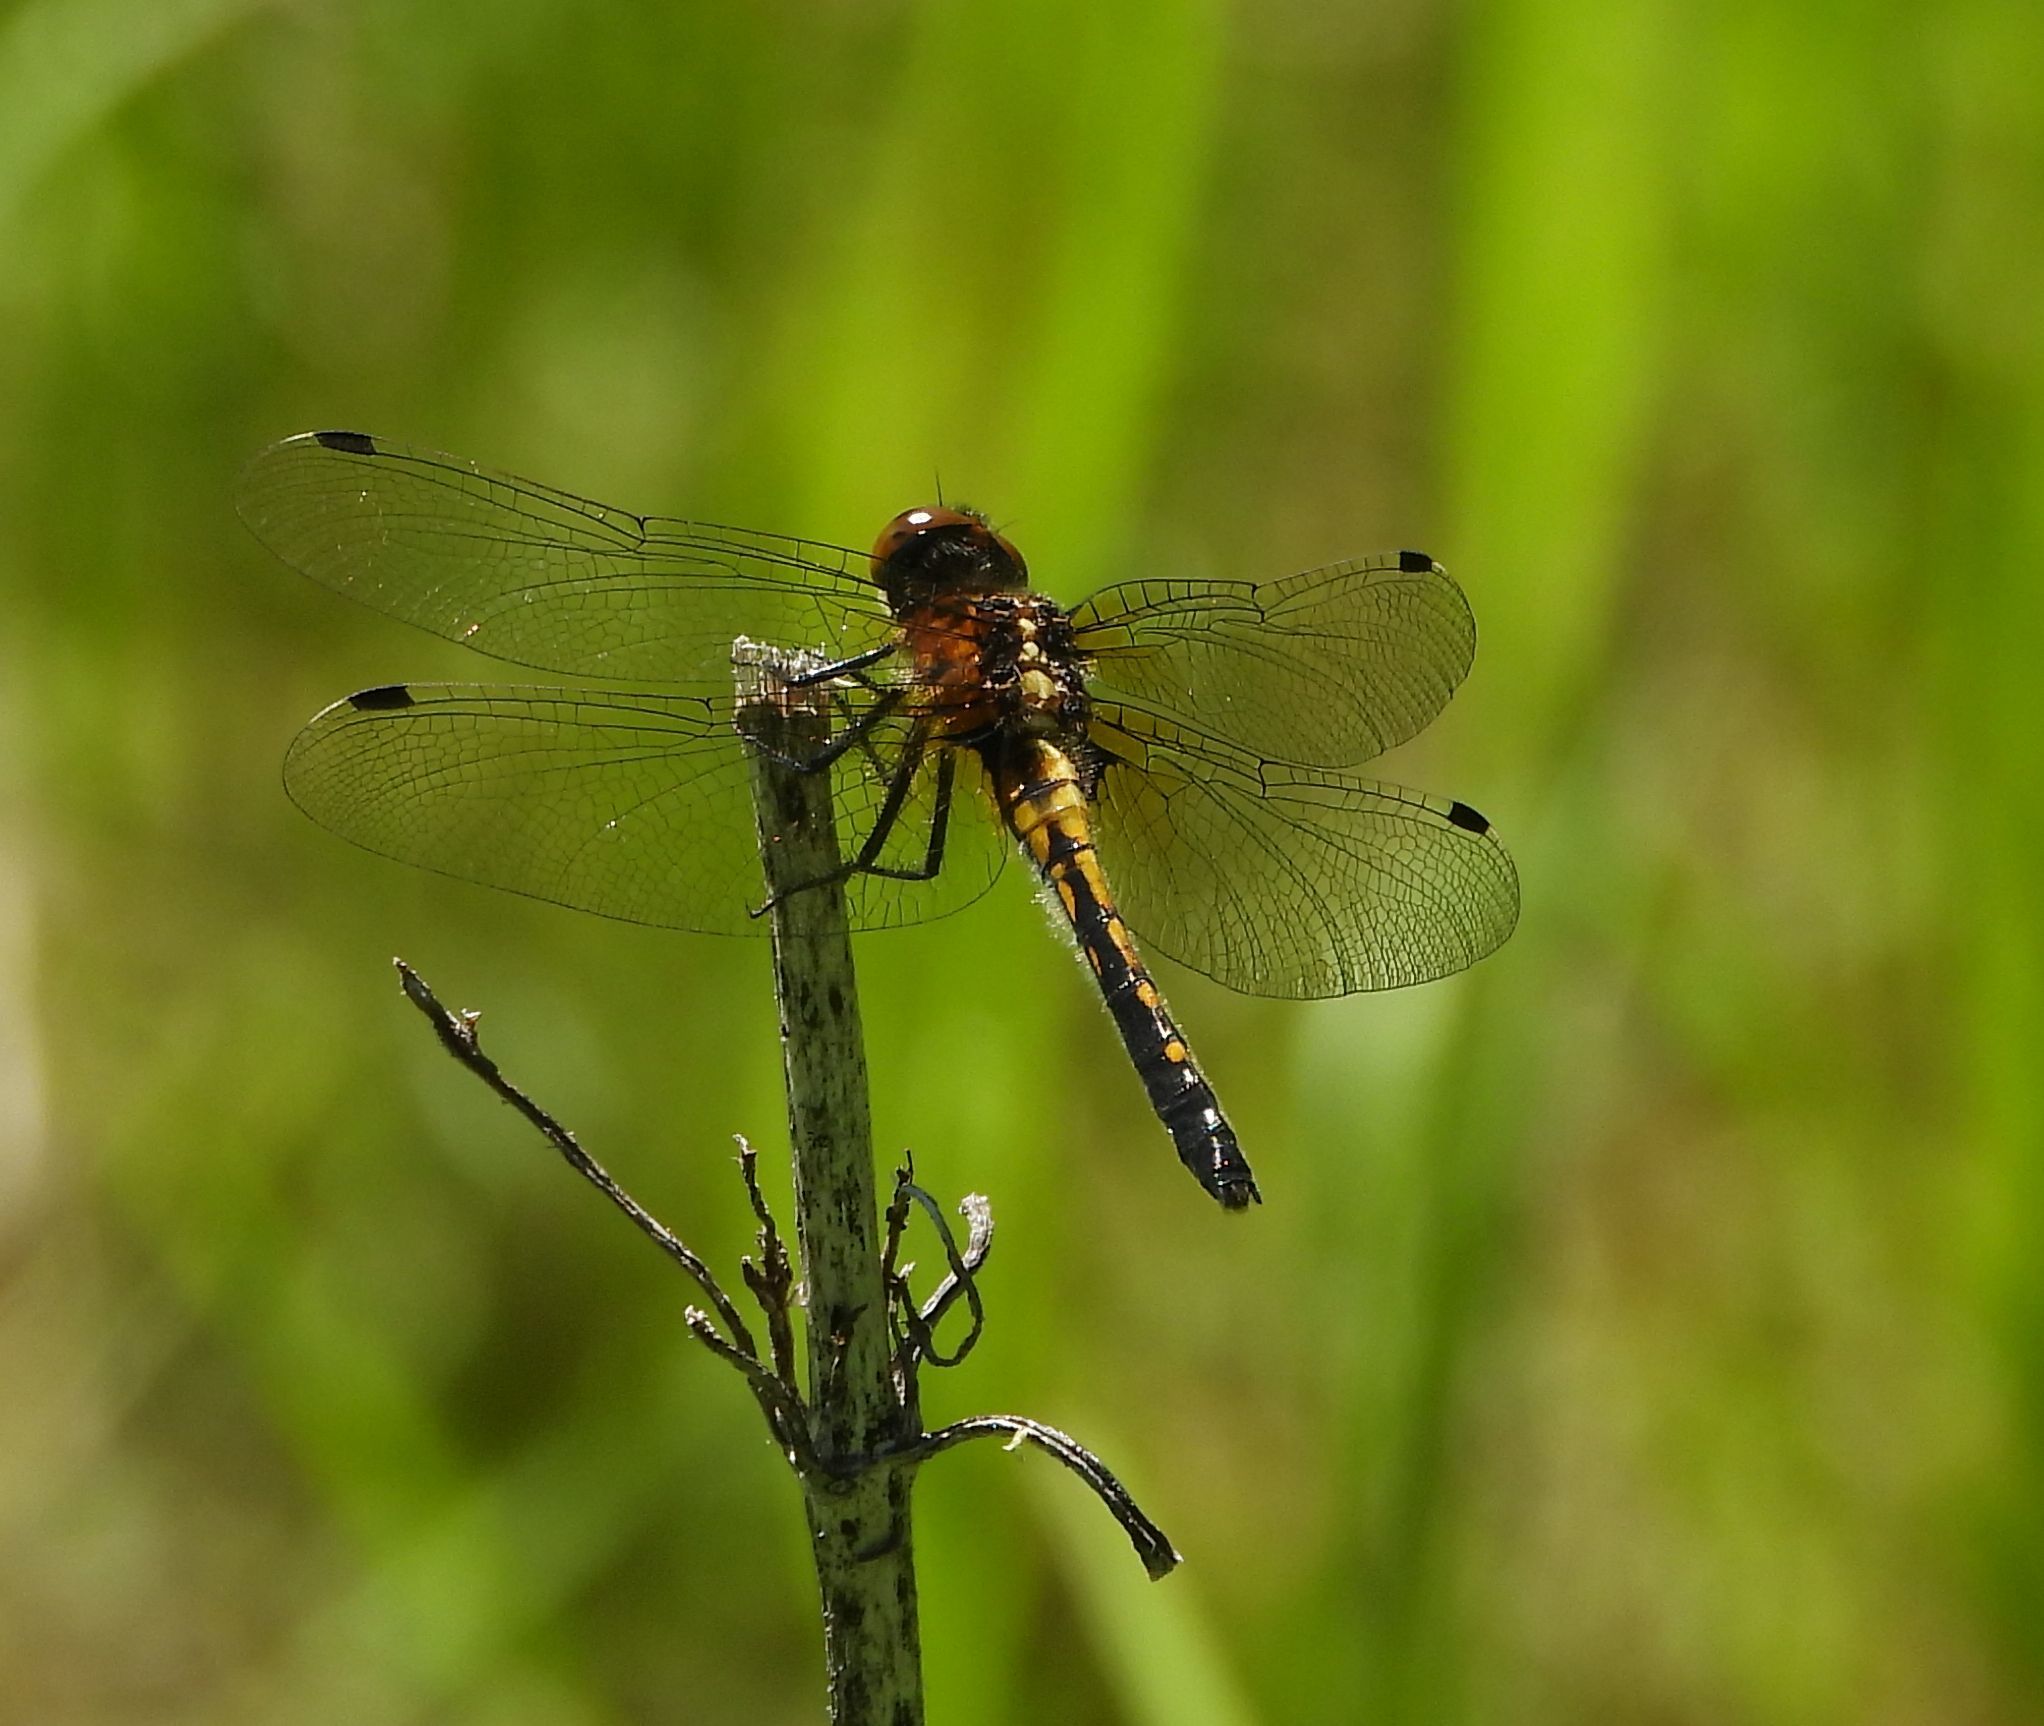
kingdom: Animalia
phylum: Arthropoda
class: Insecta
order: Odonata
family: Libellulidae
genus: Leucorrhinia
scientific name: Leucorrhinia intacta
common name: Dot-tailed whiteface
